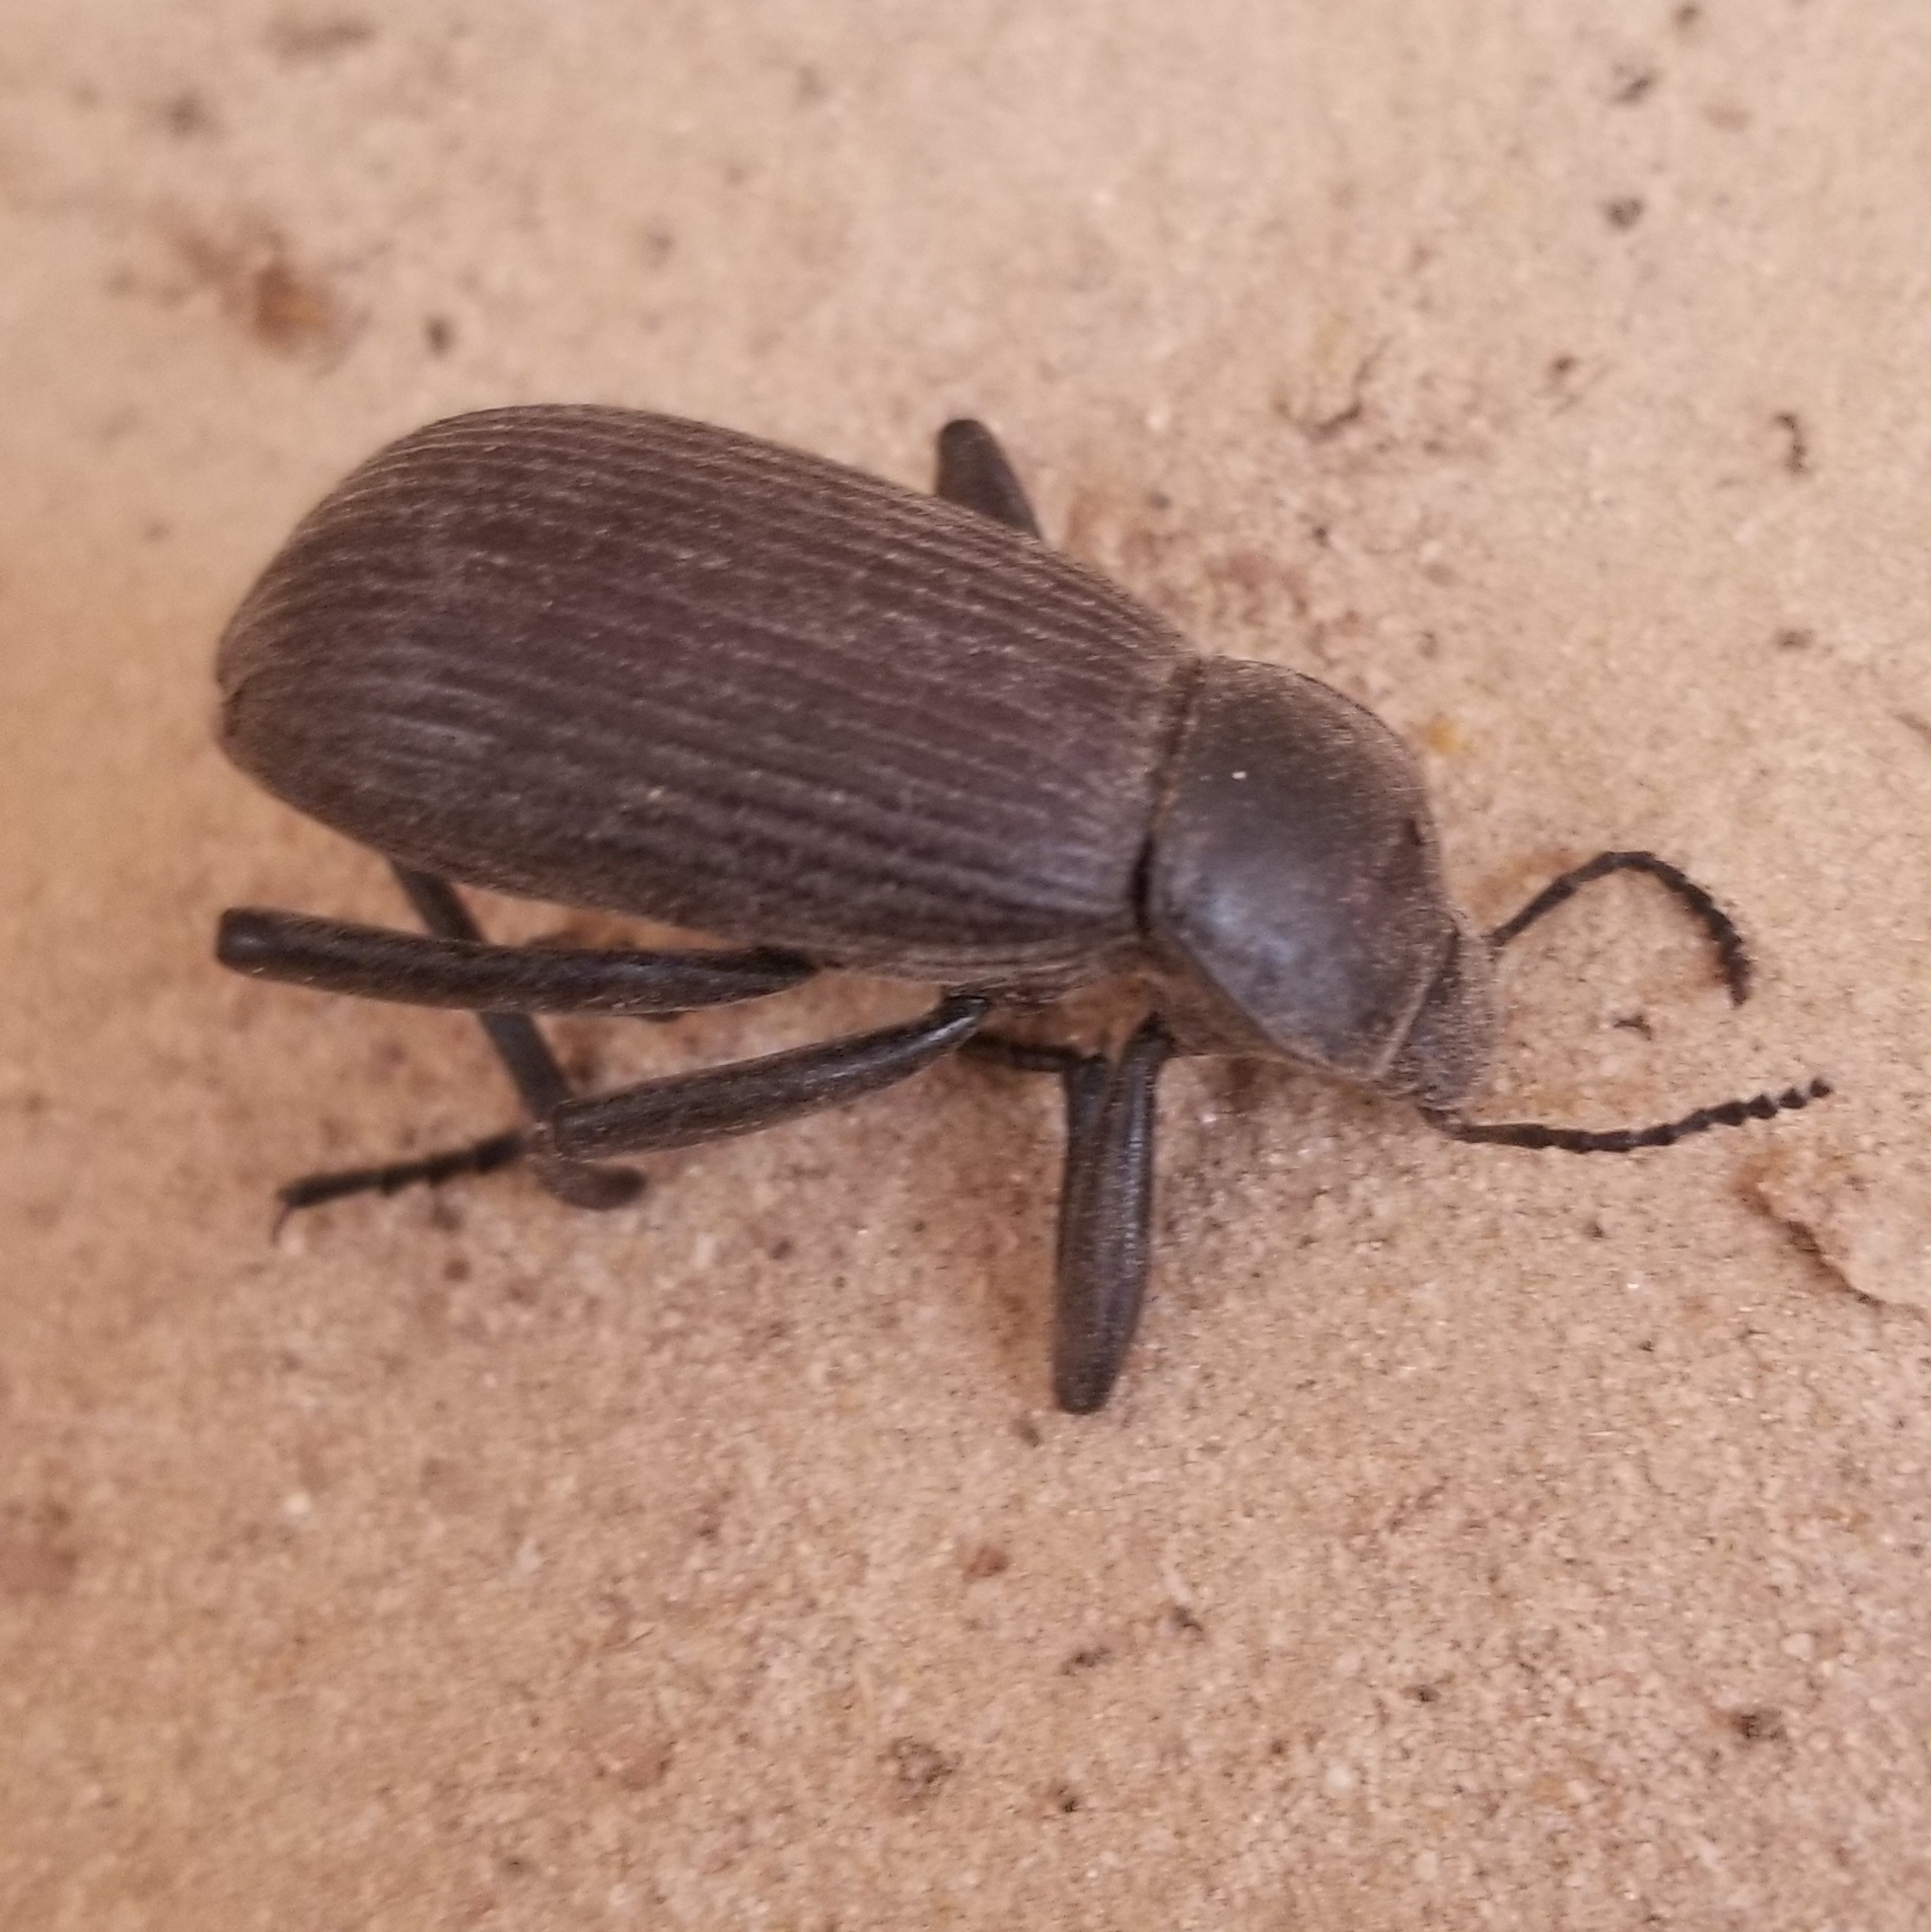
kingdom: Animalia
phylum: Arthropoda
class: Insecta
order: Coleoptera
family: Tenebrionidae
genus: Eleodes
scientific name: Eleodes obscura
